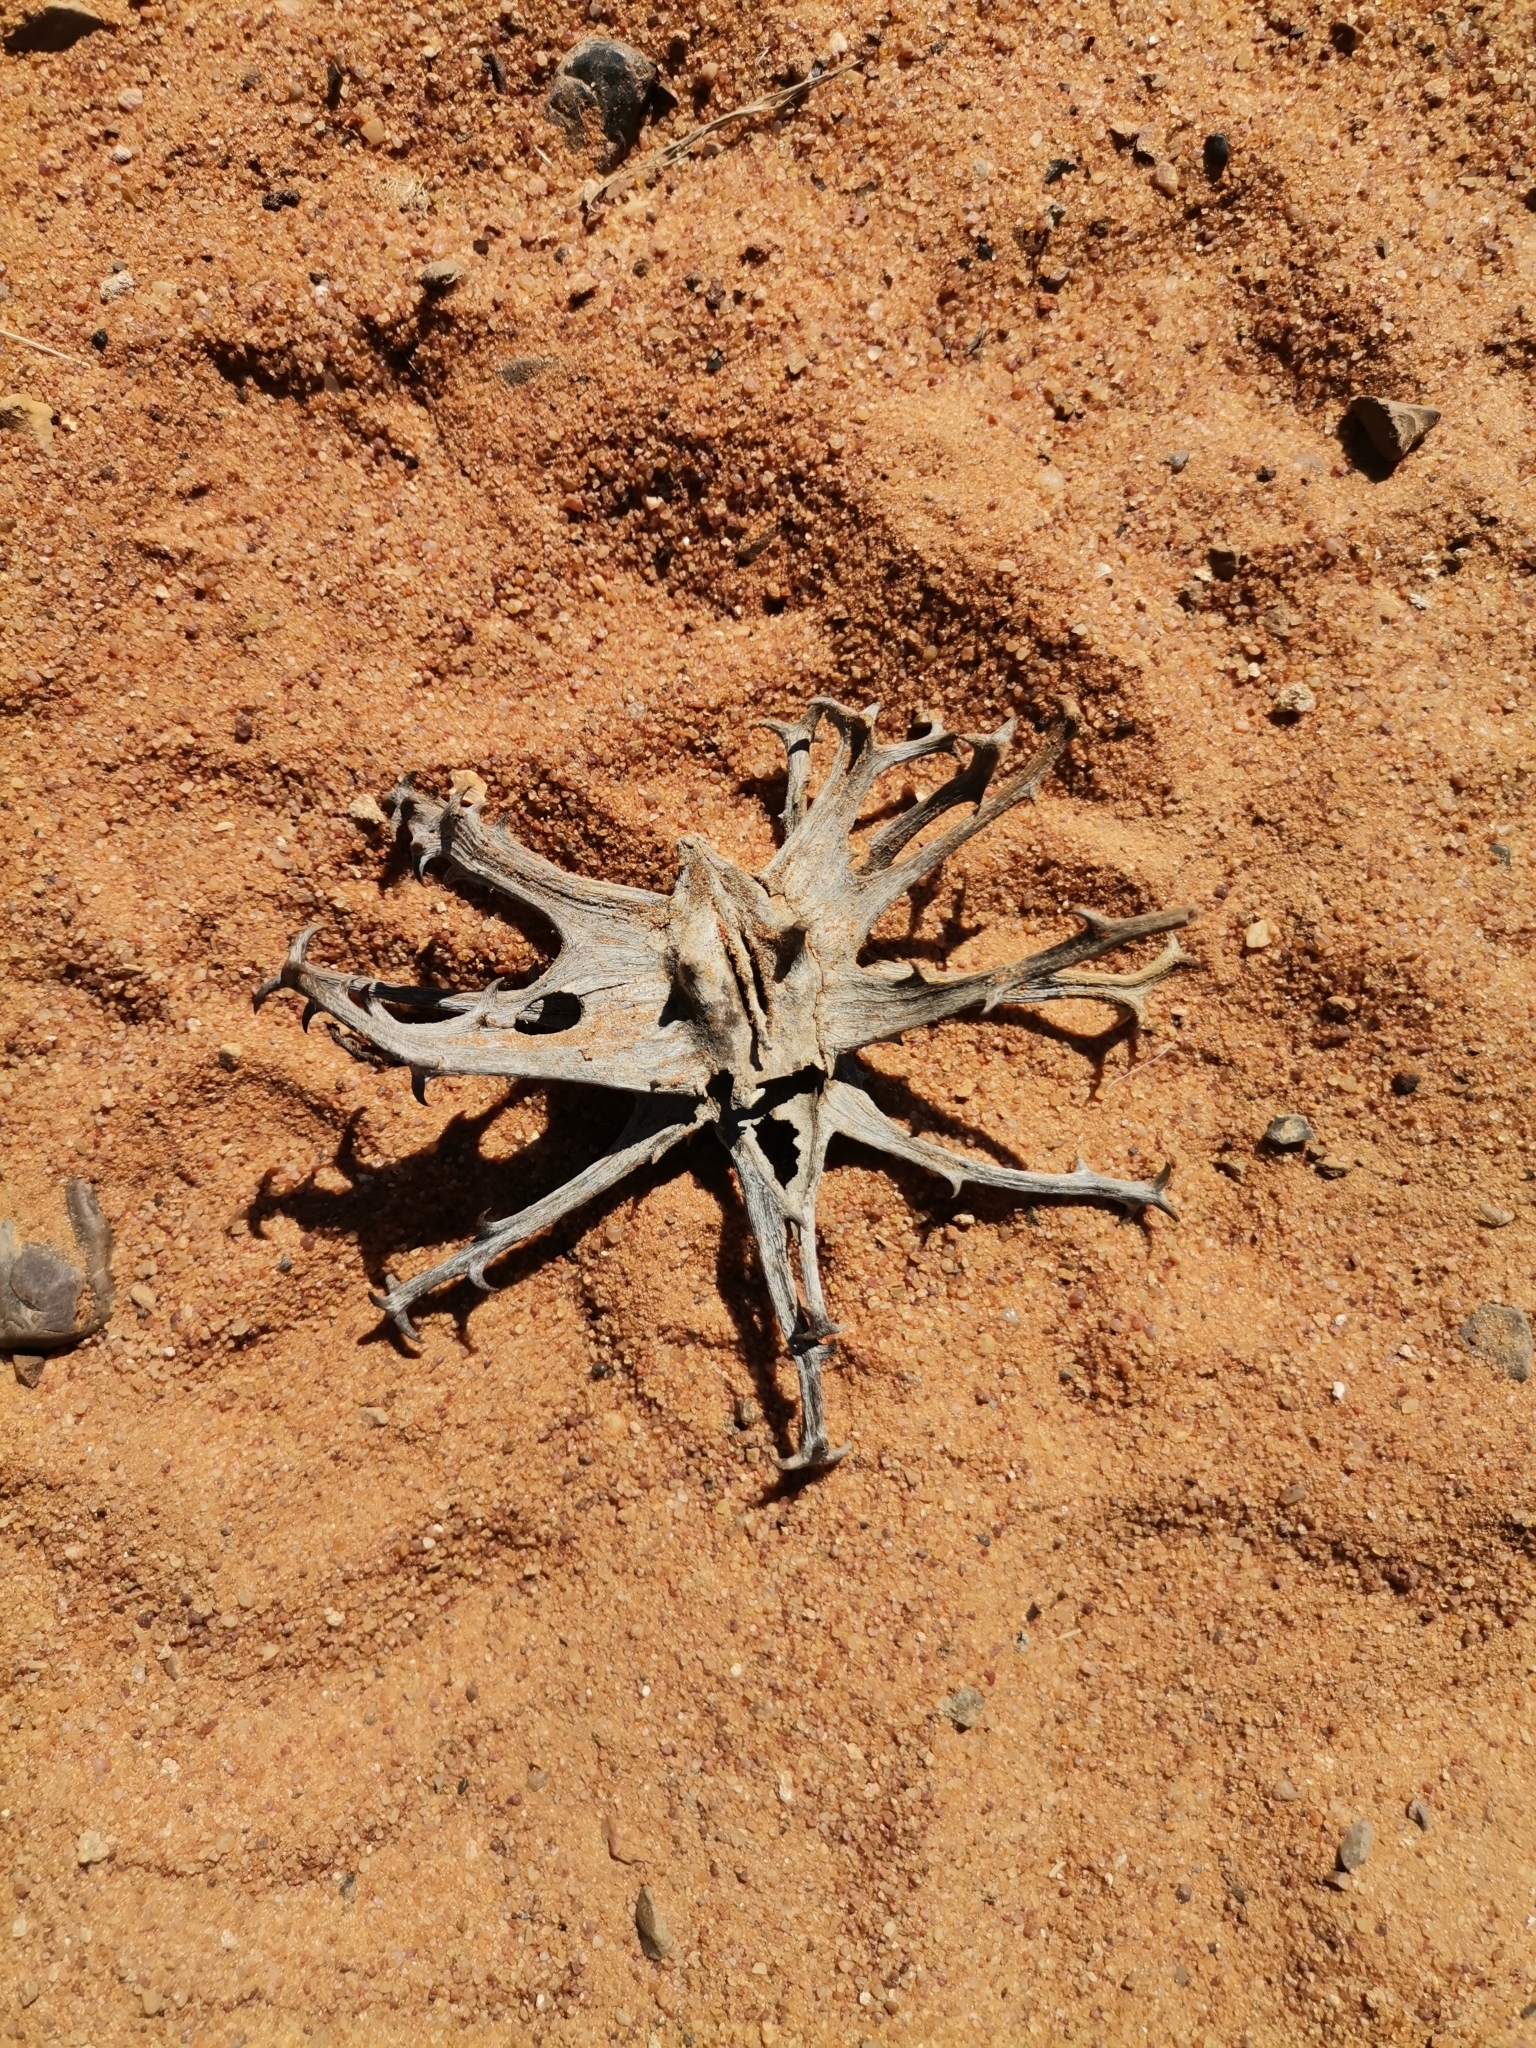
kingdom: Plantae
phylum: Tracheophyta
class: Magnoliopsida
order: Lamiales
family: Pedaliaceae
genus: Harpagophytum
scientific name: Harpagophytum procumbens
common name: Grappleplant
